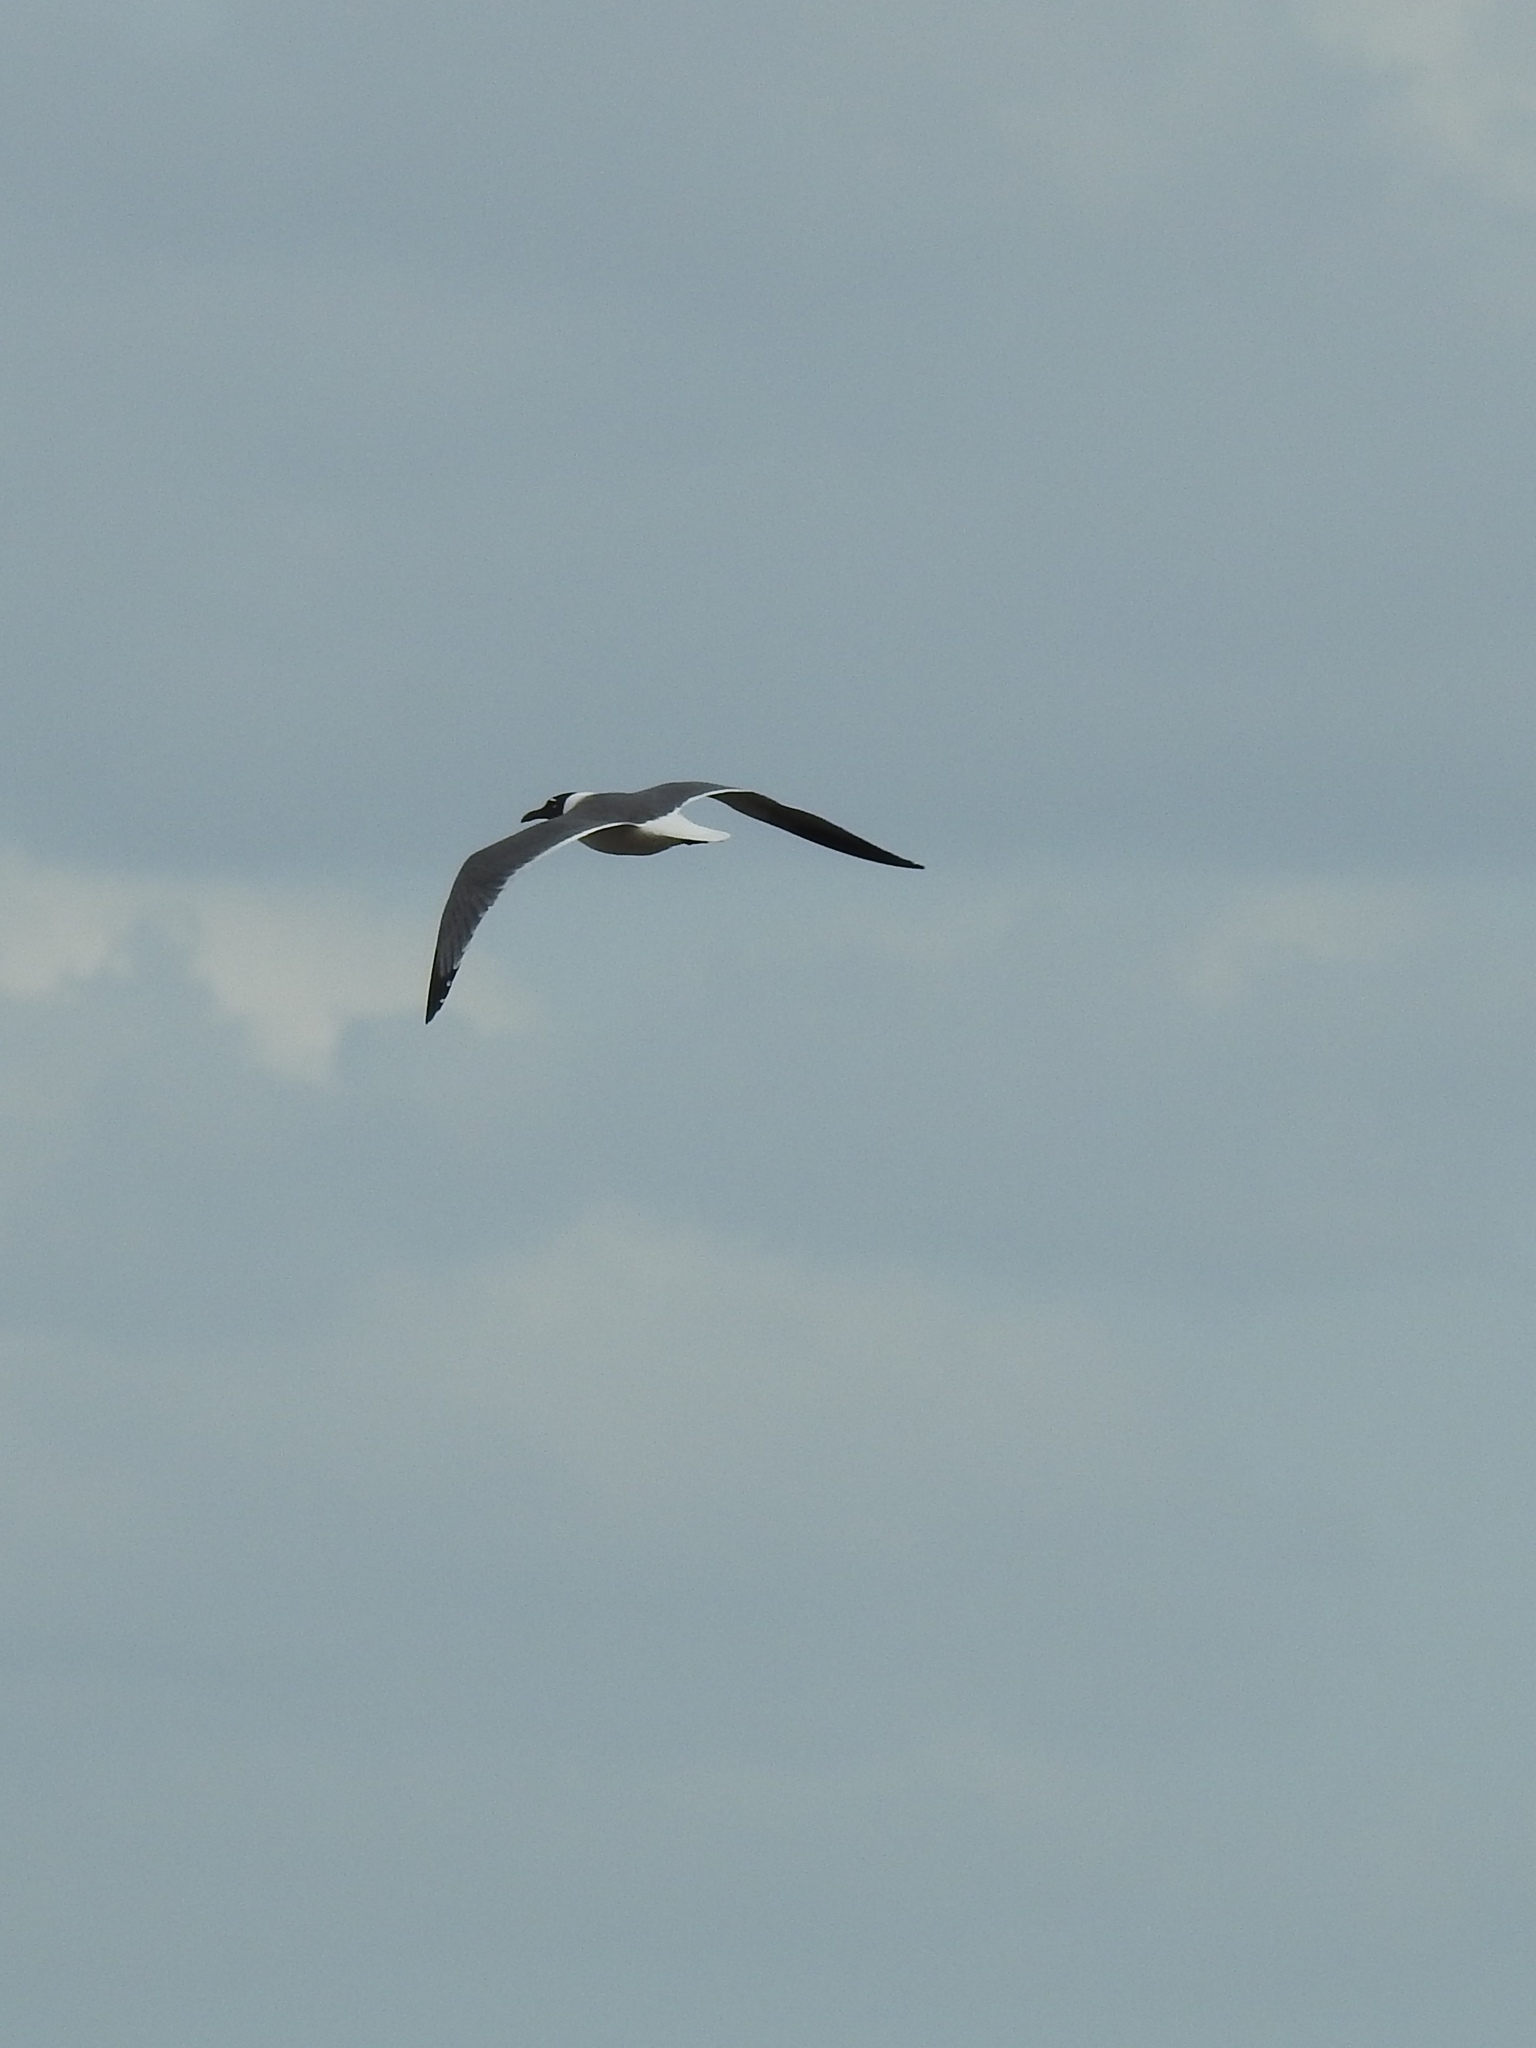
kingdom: Animalia
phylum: Chordata
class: Aves
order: Charadriiformes
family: Laridae
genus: Leucophaeus
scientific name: Leucophaeus atricilla
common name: Laughing gull
